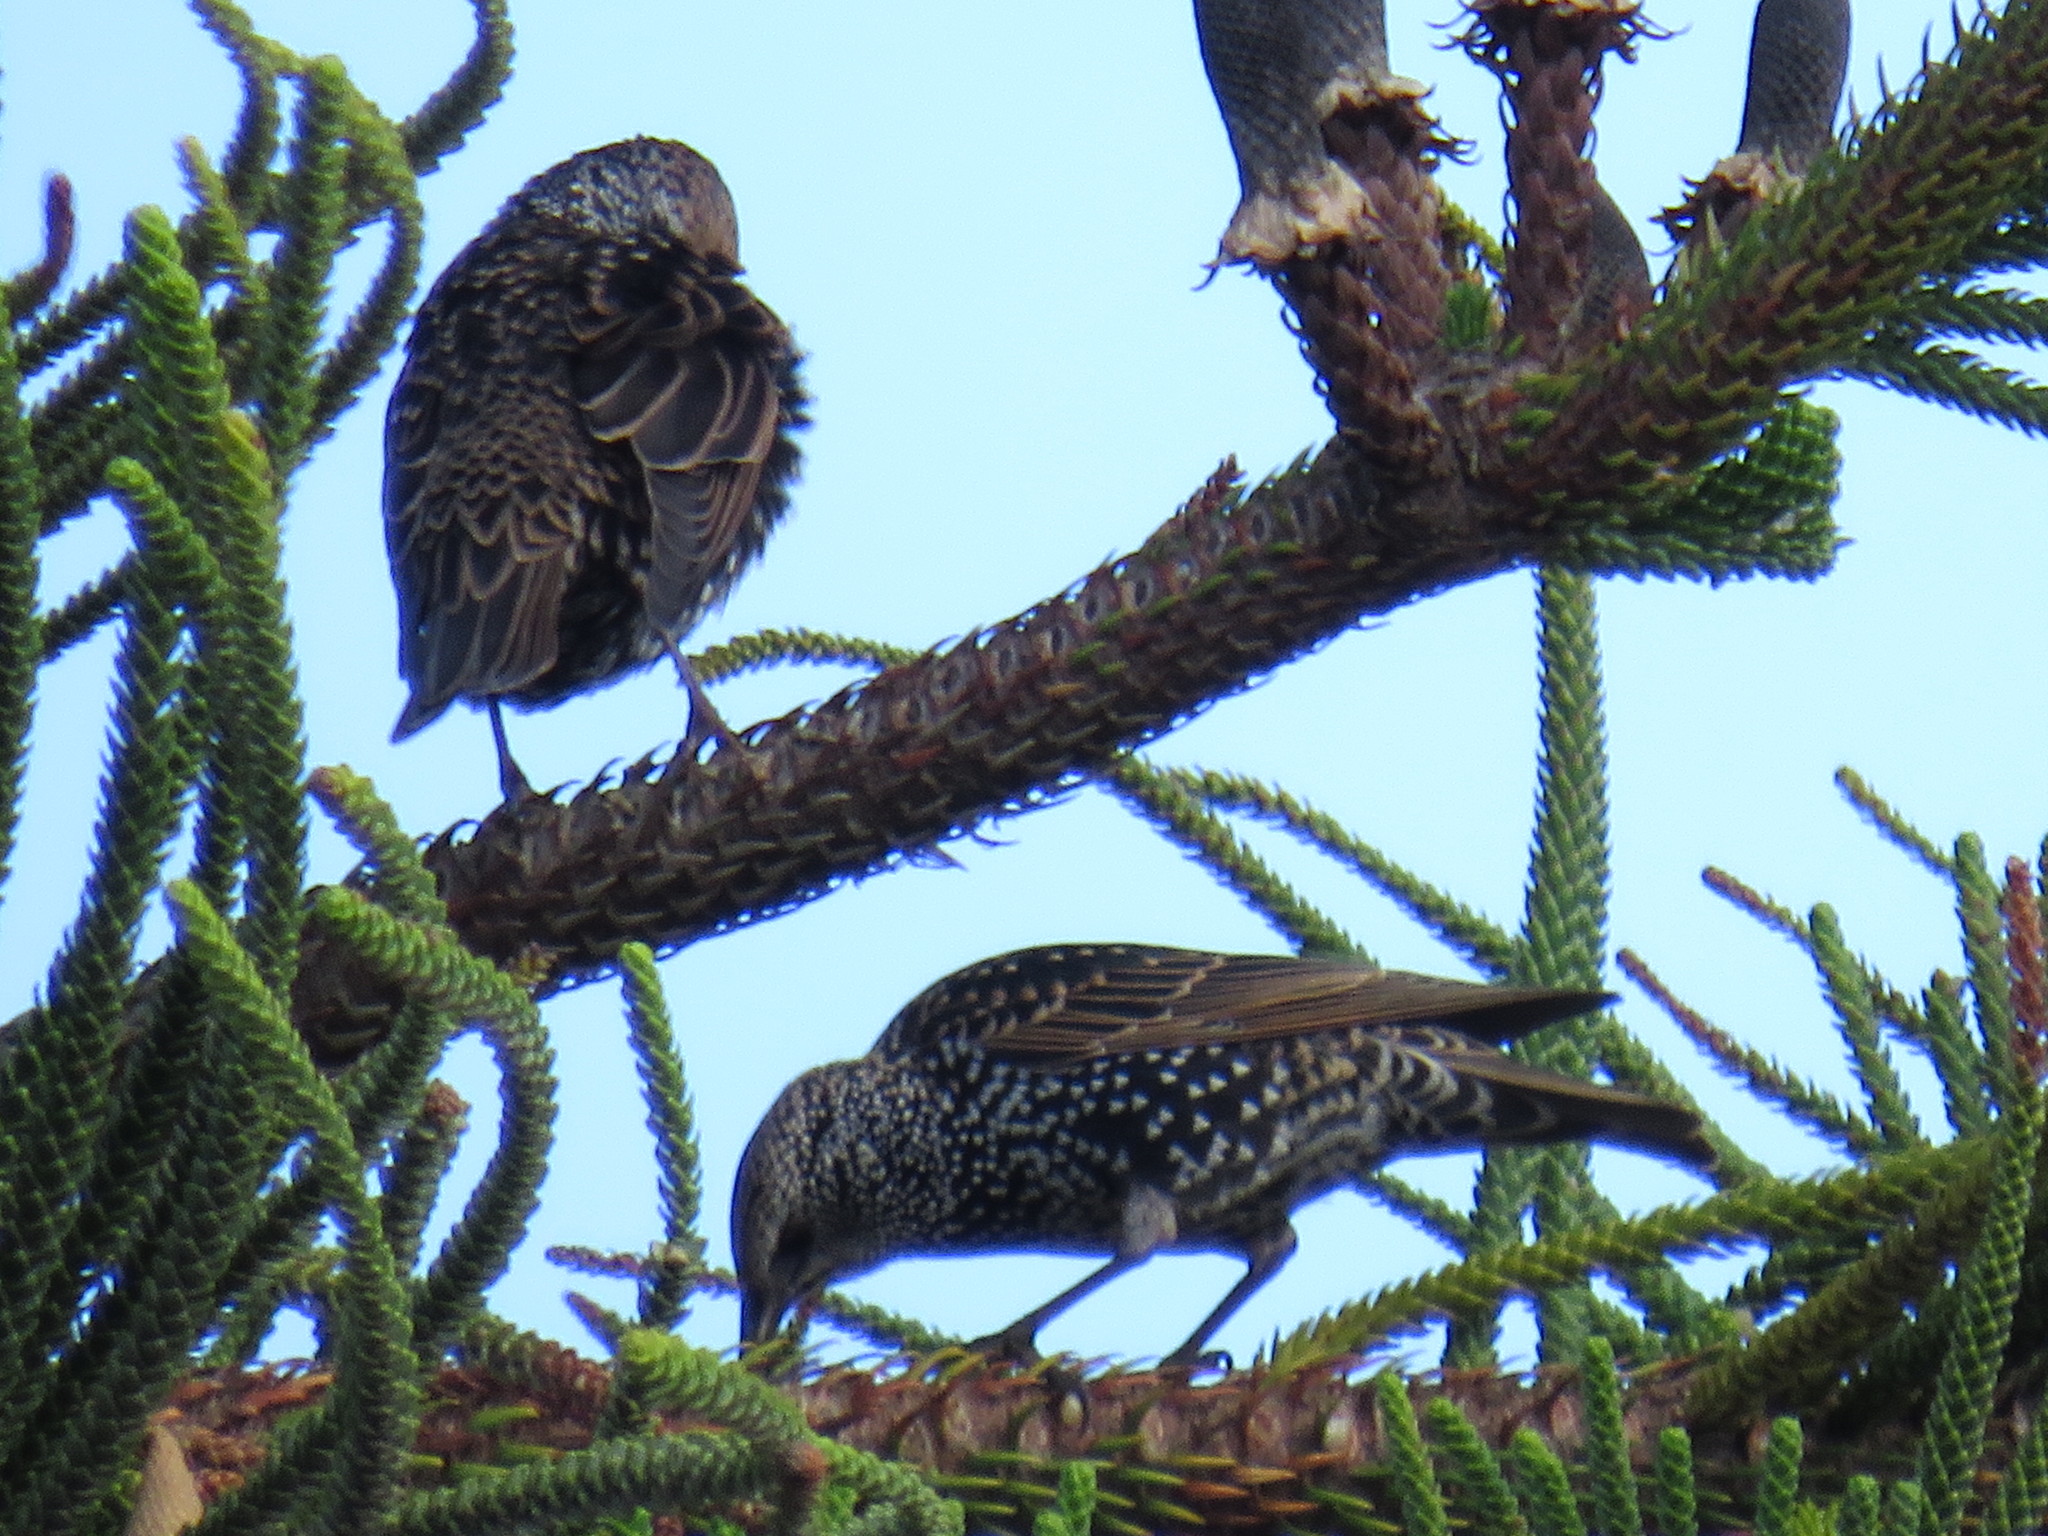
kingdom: Animalia
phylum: Chordata
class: Aves
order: Passeriformes
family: Sturnidae
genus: Sturnus
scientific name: Sturnus vulgaris
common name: Common starling
